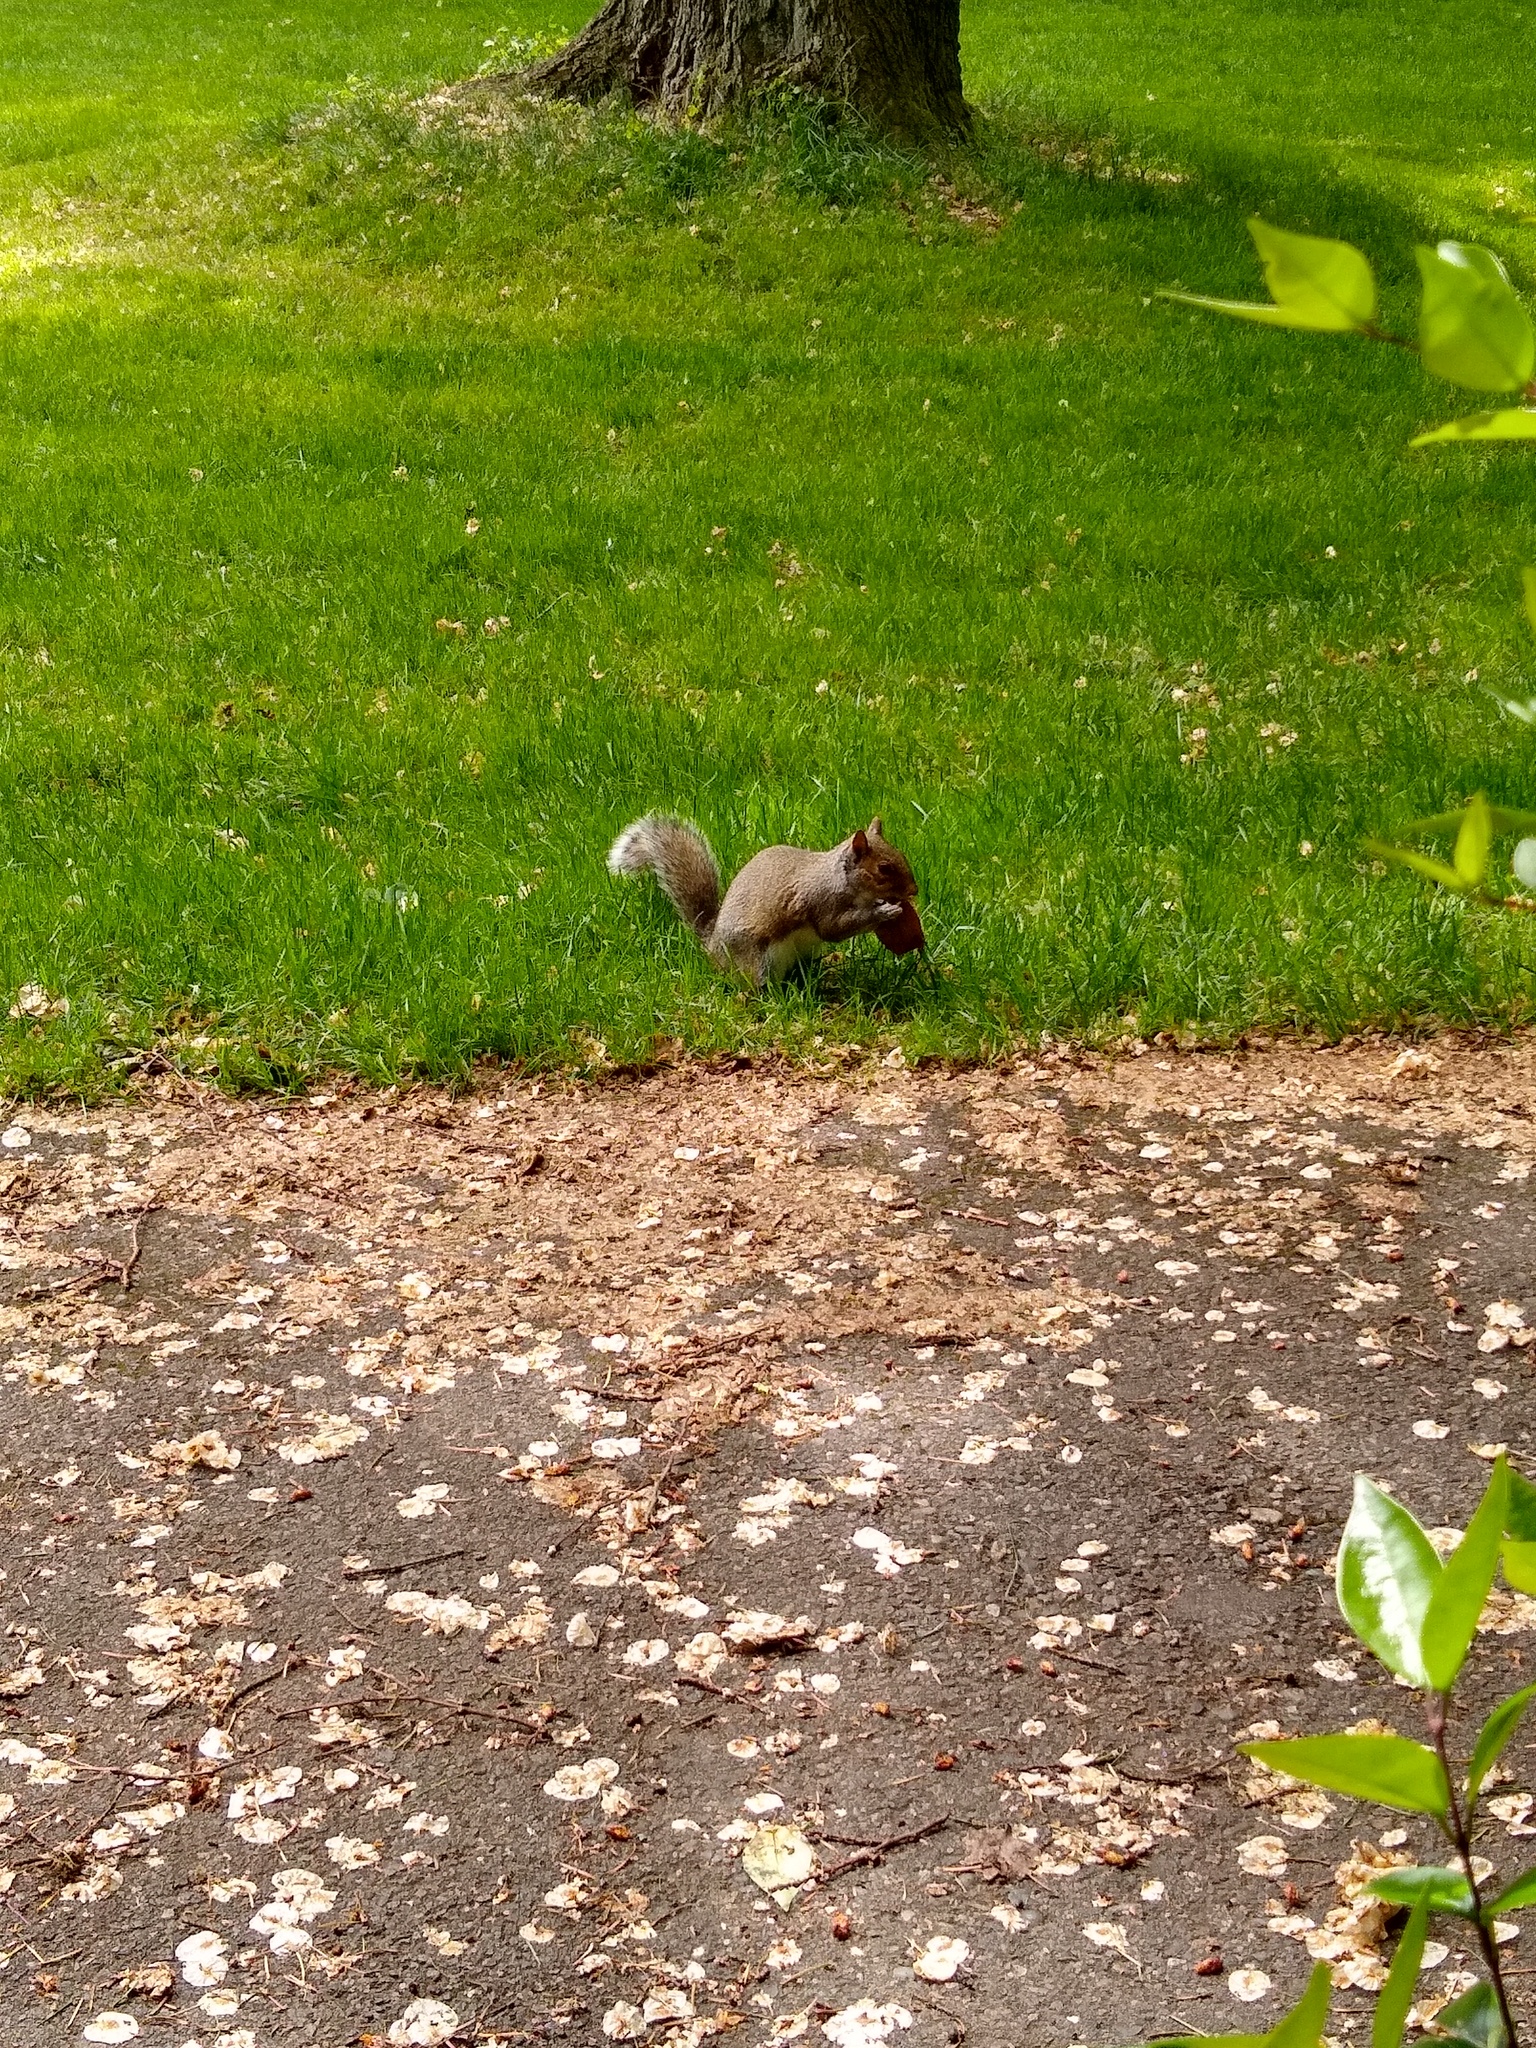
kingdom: Animalia
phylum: Chordata
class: Mammalia
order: Rodentia
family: Sciuridae
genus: Sciurus
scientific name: Sciurus carolinensis
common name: Eastern gray squirrel
